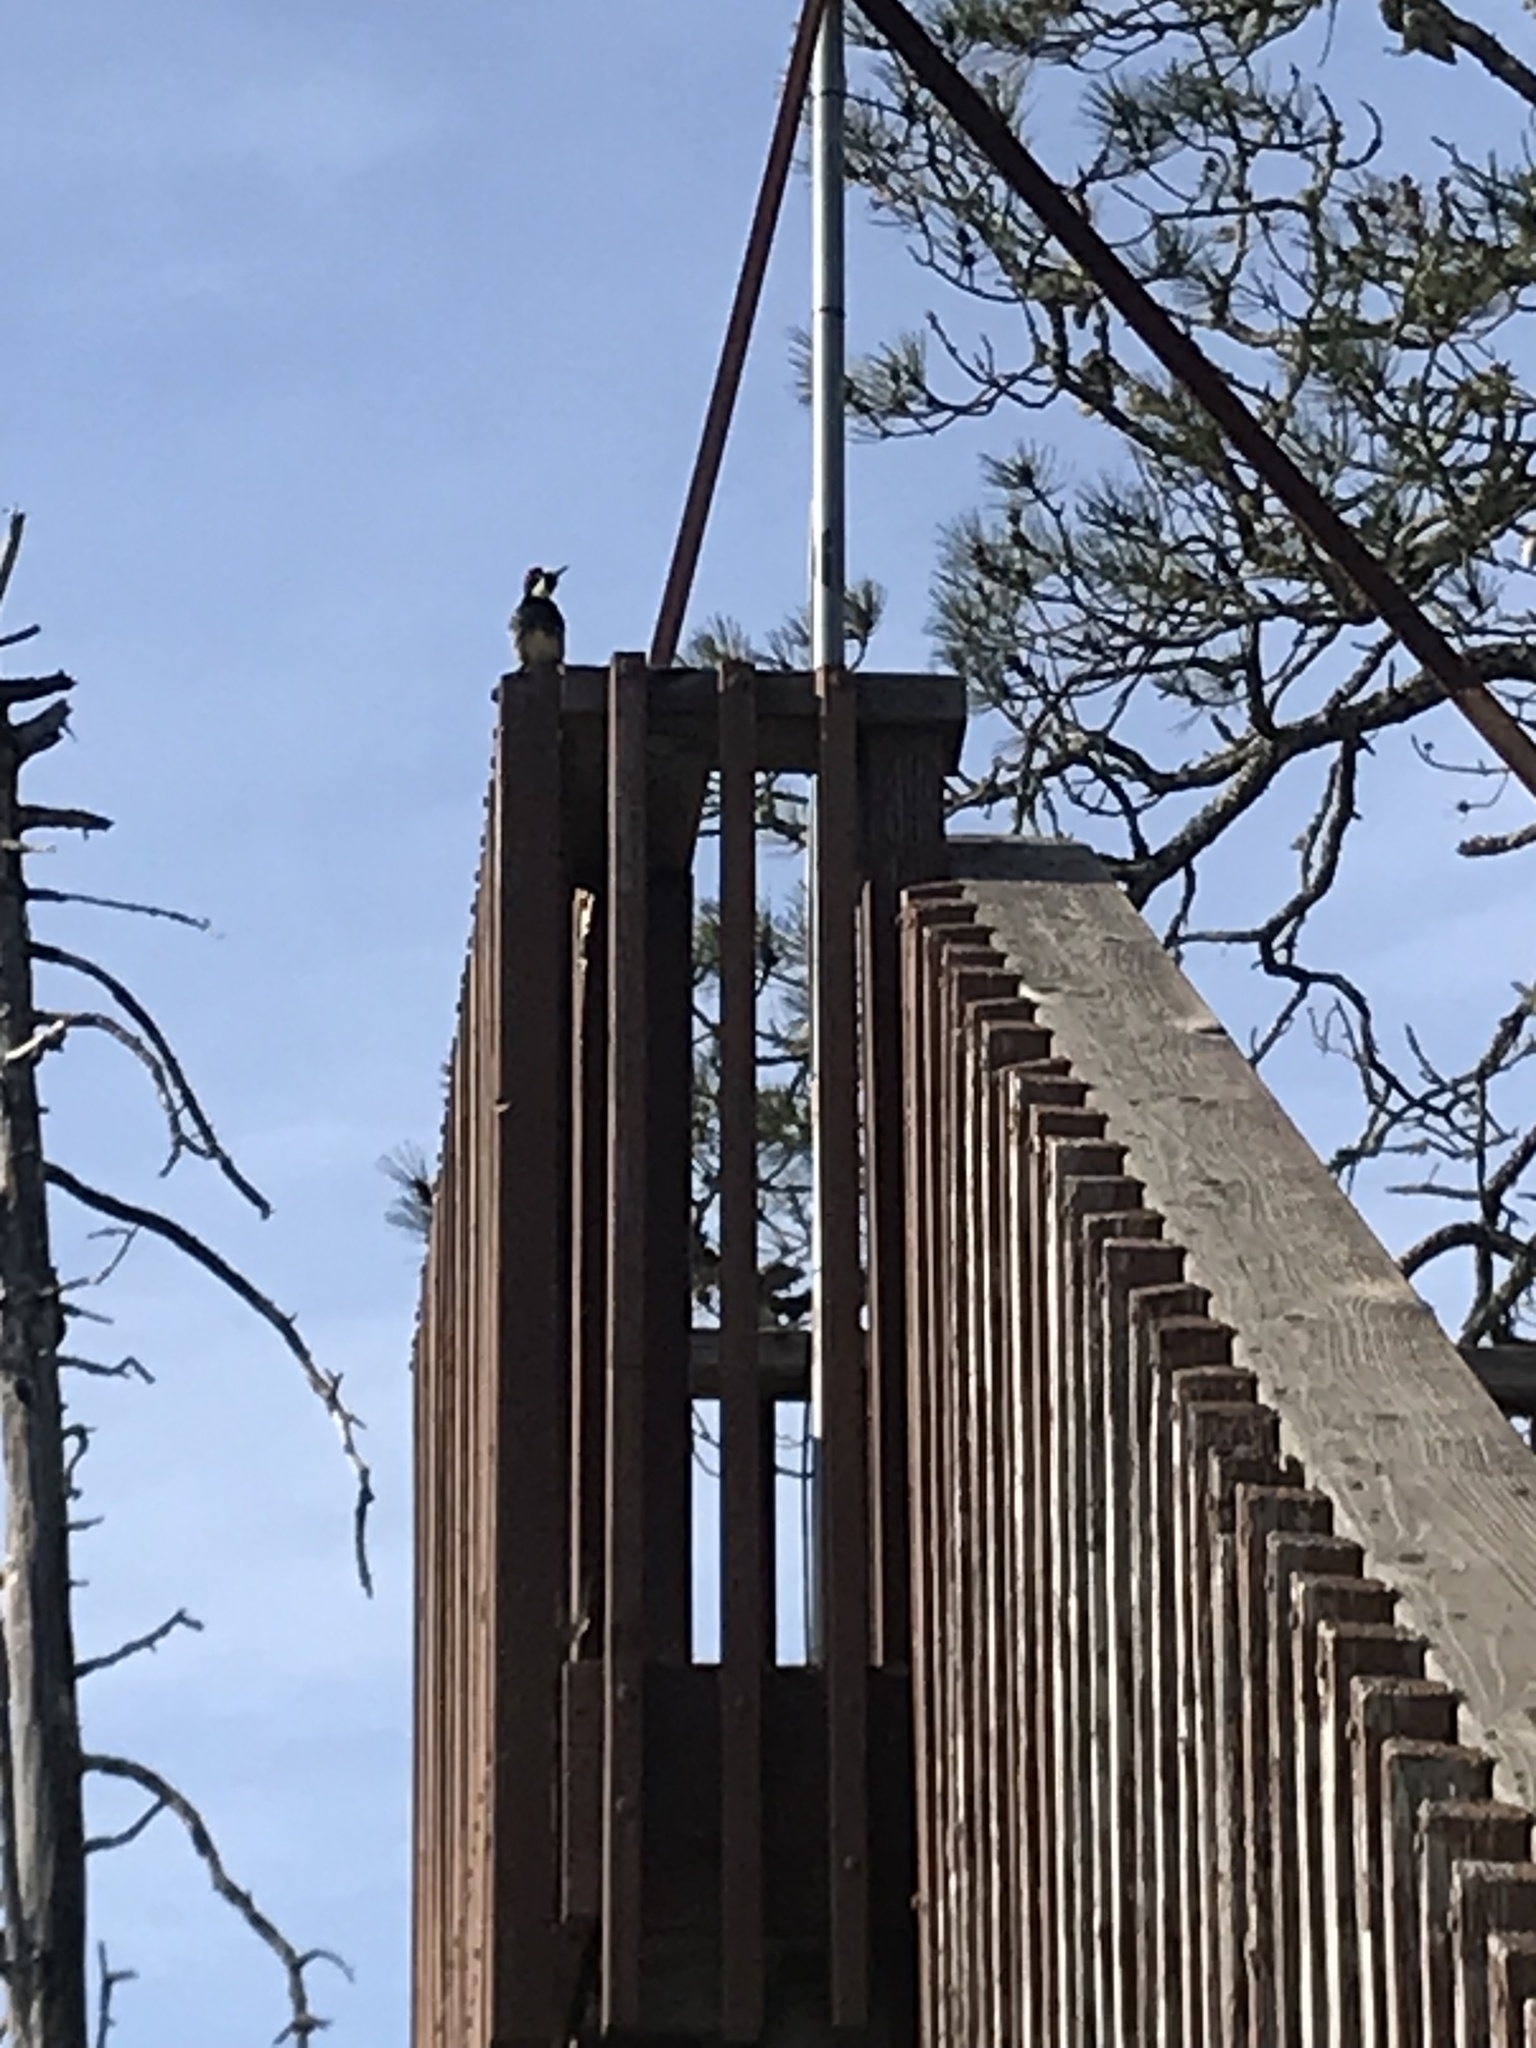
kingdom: Animalia
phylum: Chordata
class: Aves
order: Piciformes
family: Picidae
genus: Melanerpes
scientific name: Melanerpes formicivorus
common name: Acorn woodpecker
